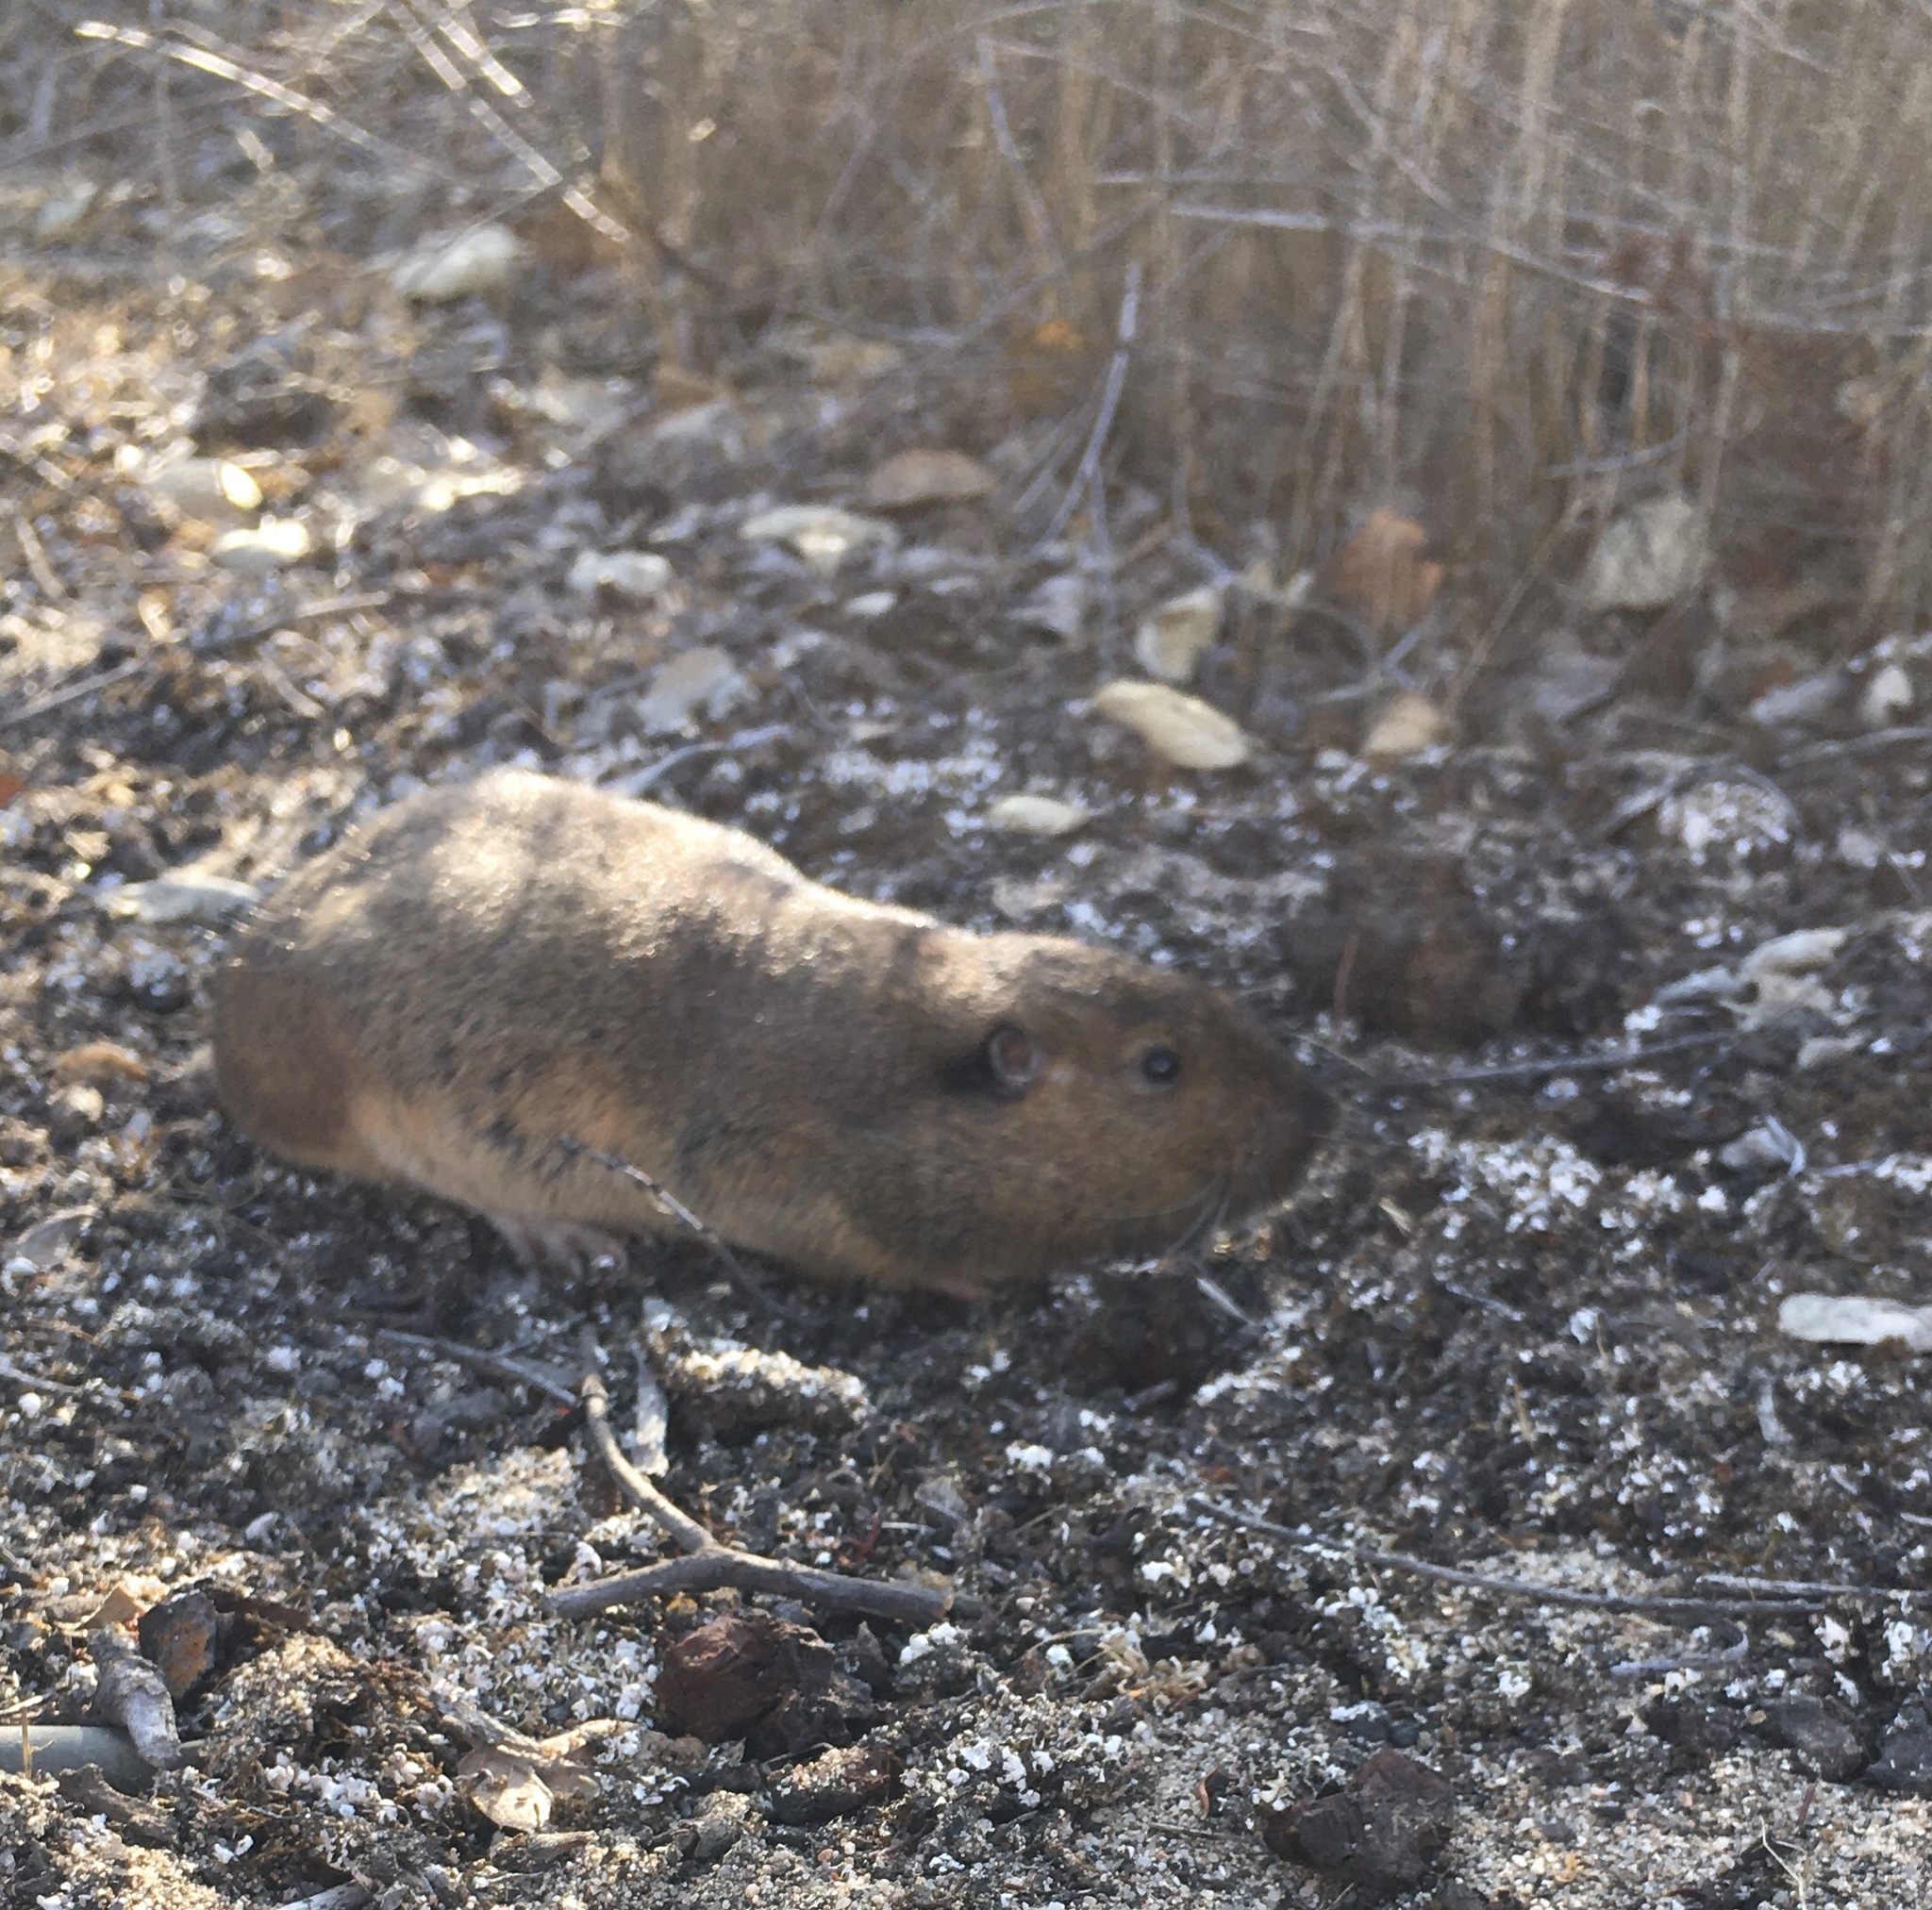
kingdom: Animalia
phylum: Chordata
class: Mammalia
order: Rodentia
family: Geomyidae
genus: Thomomys
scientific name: Thomomys bottae
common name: Botta's pocket gopher
